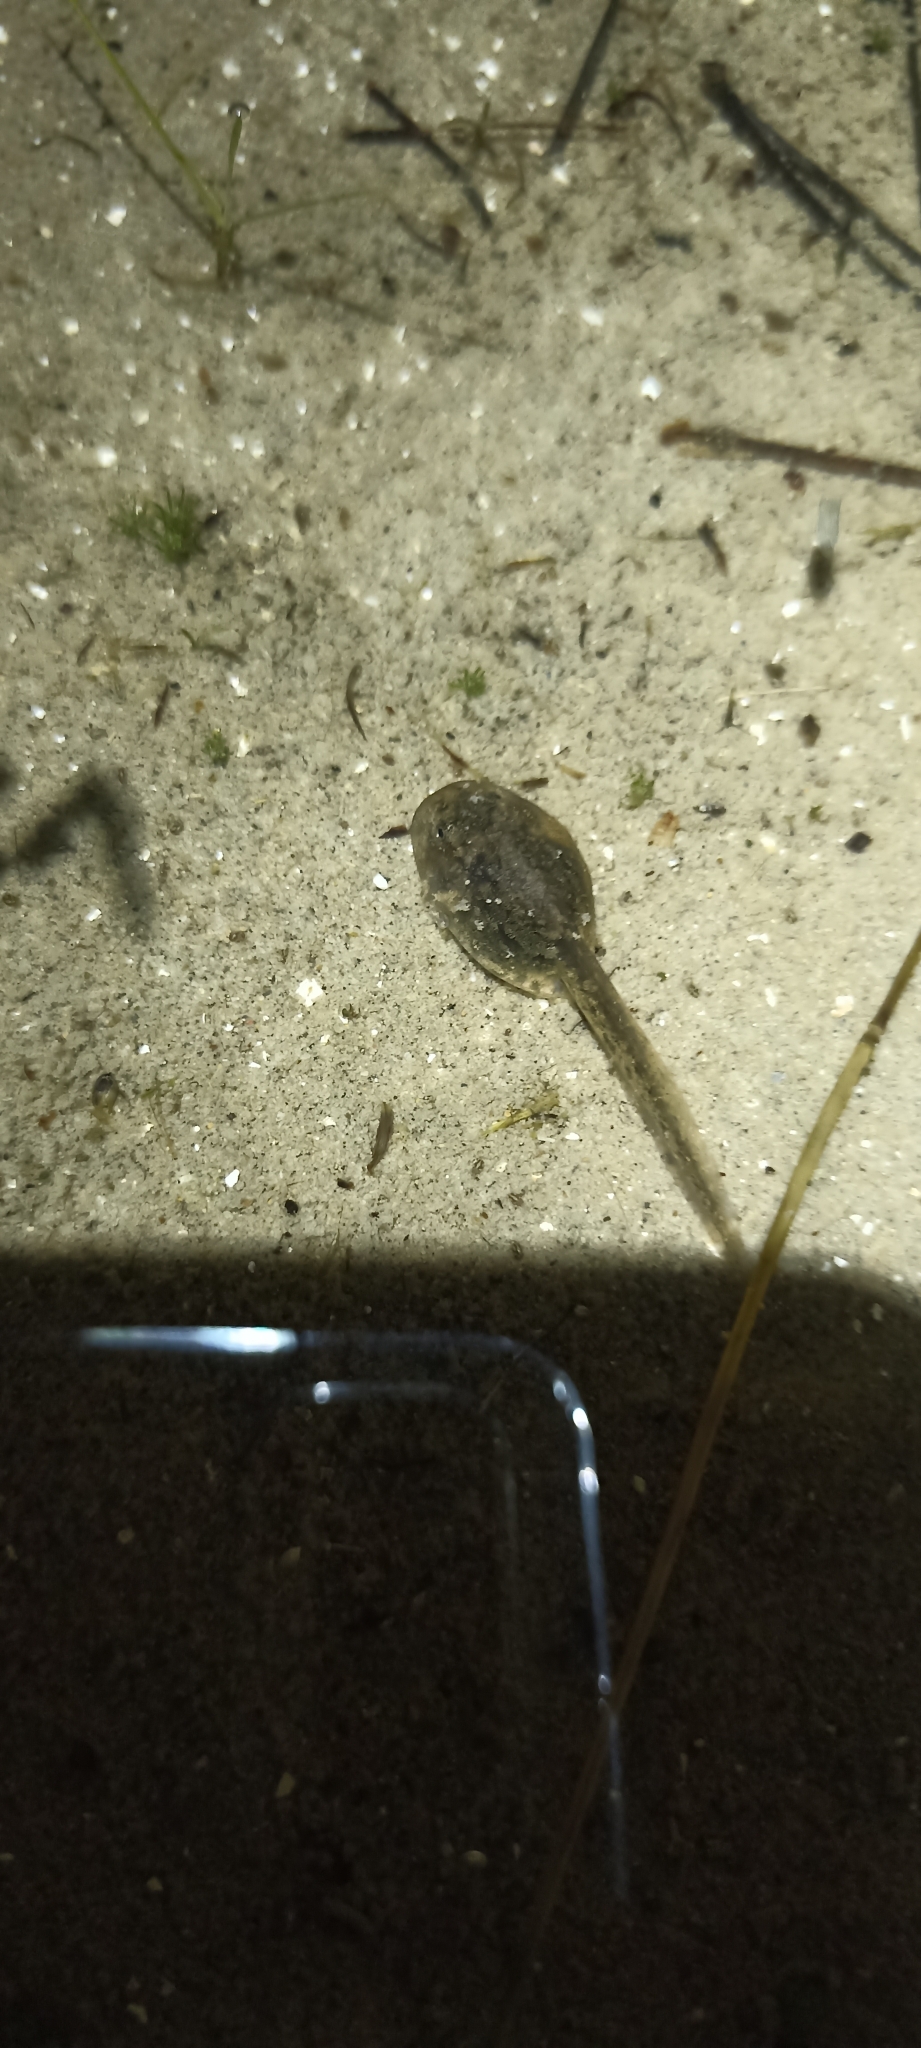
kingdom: Animalia
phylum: Chordata
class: Amphibia
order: Anura
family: Pelodytidae
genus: Pelodytes
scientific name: Pelodytes punctatus
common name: Parsley frog
